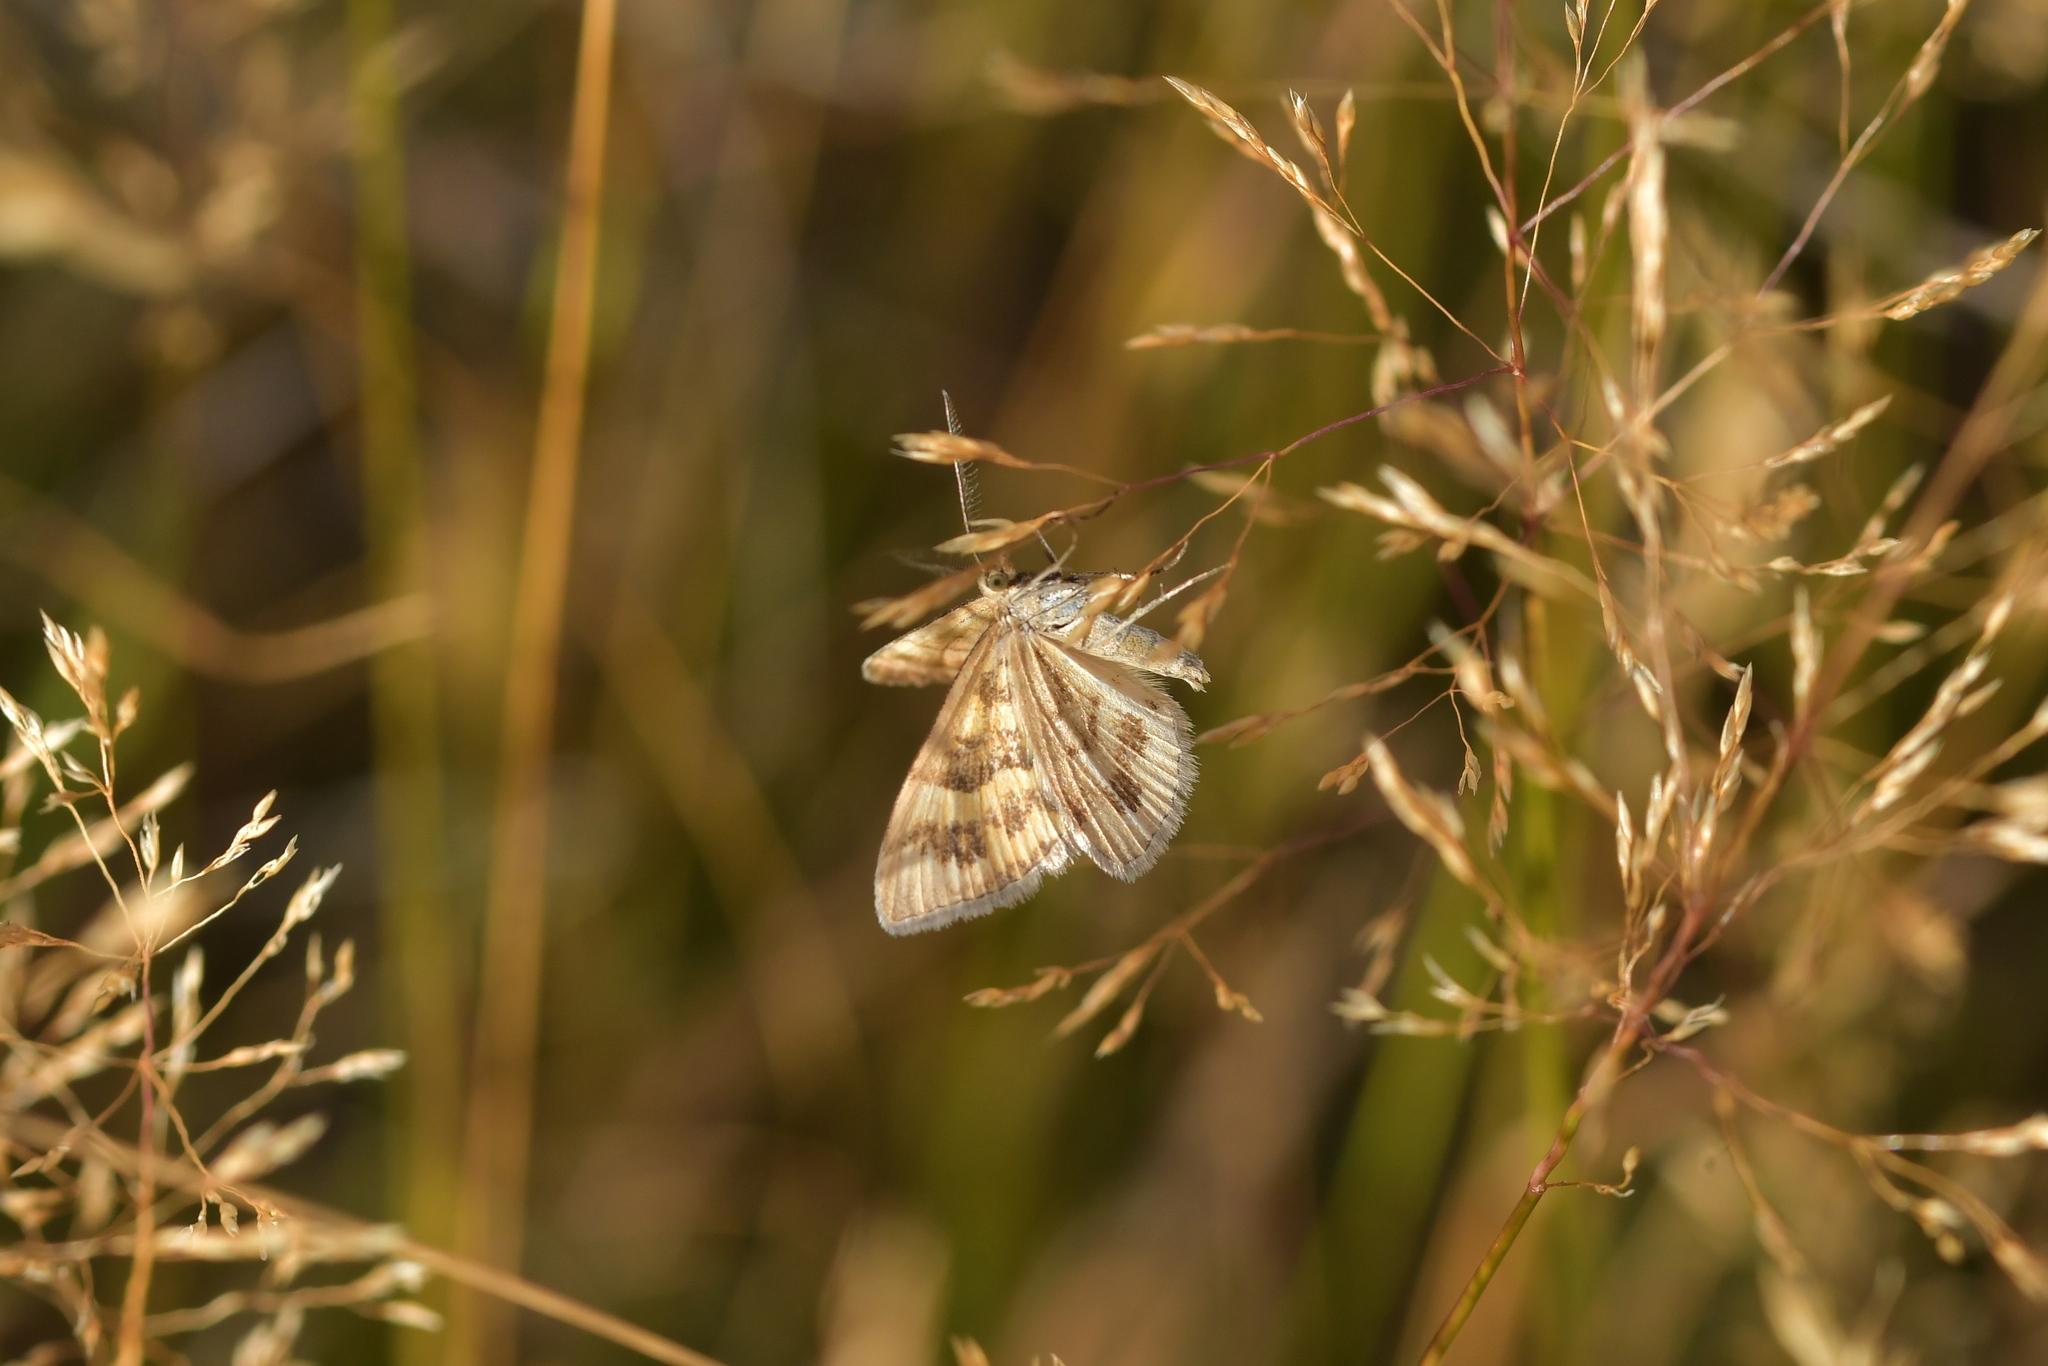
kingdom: Animalia
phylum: Arthropoda
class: Insecta
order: Lepidoptera
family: Geometridae
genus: Asaphodes
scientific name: Asaphodes abrogata
